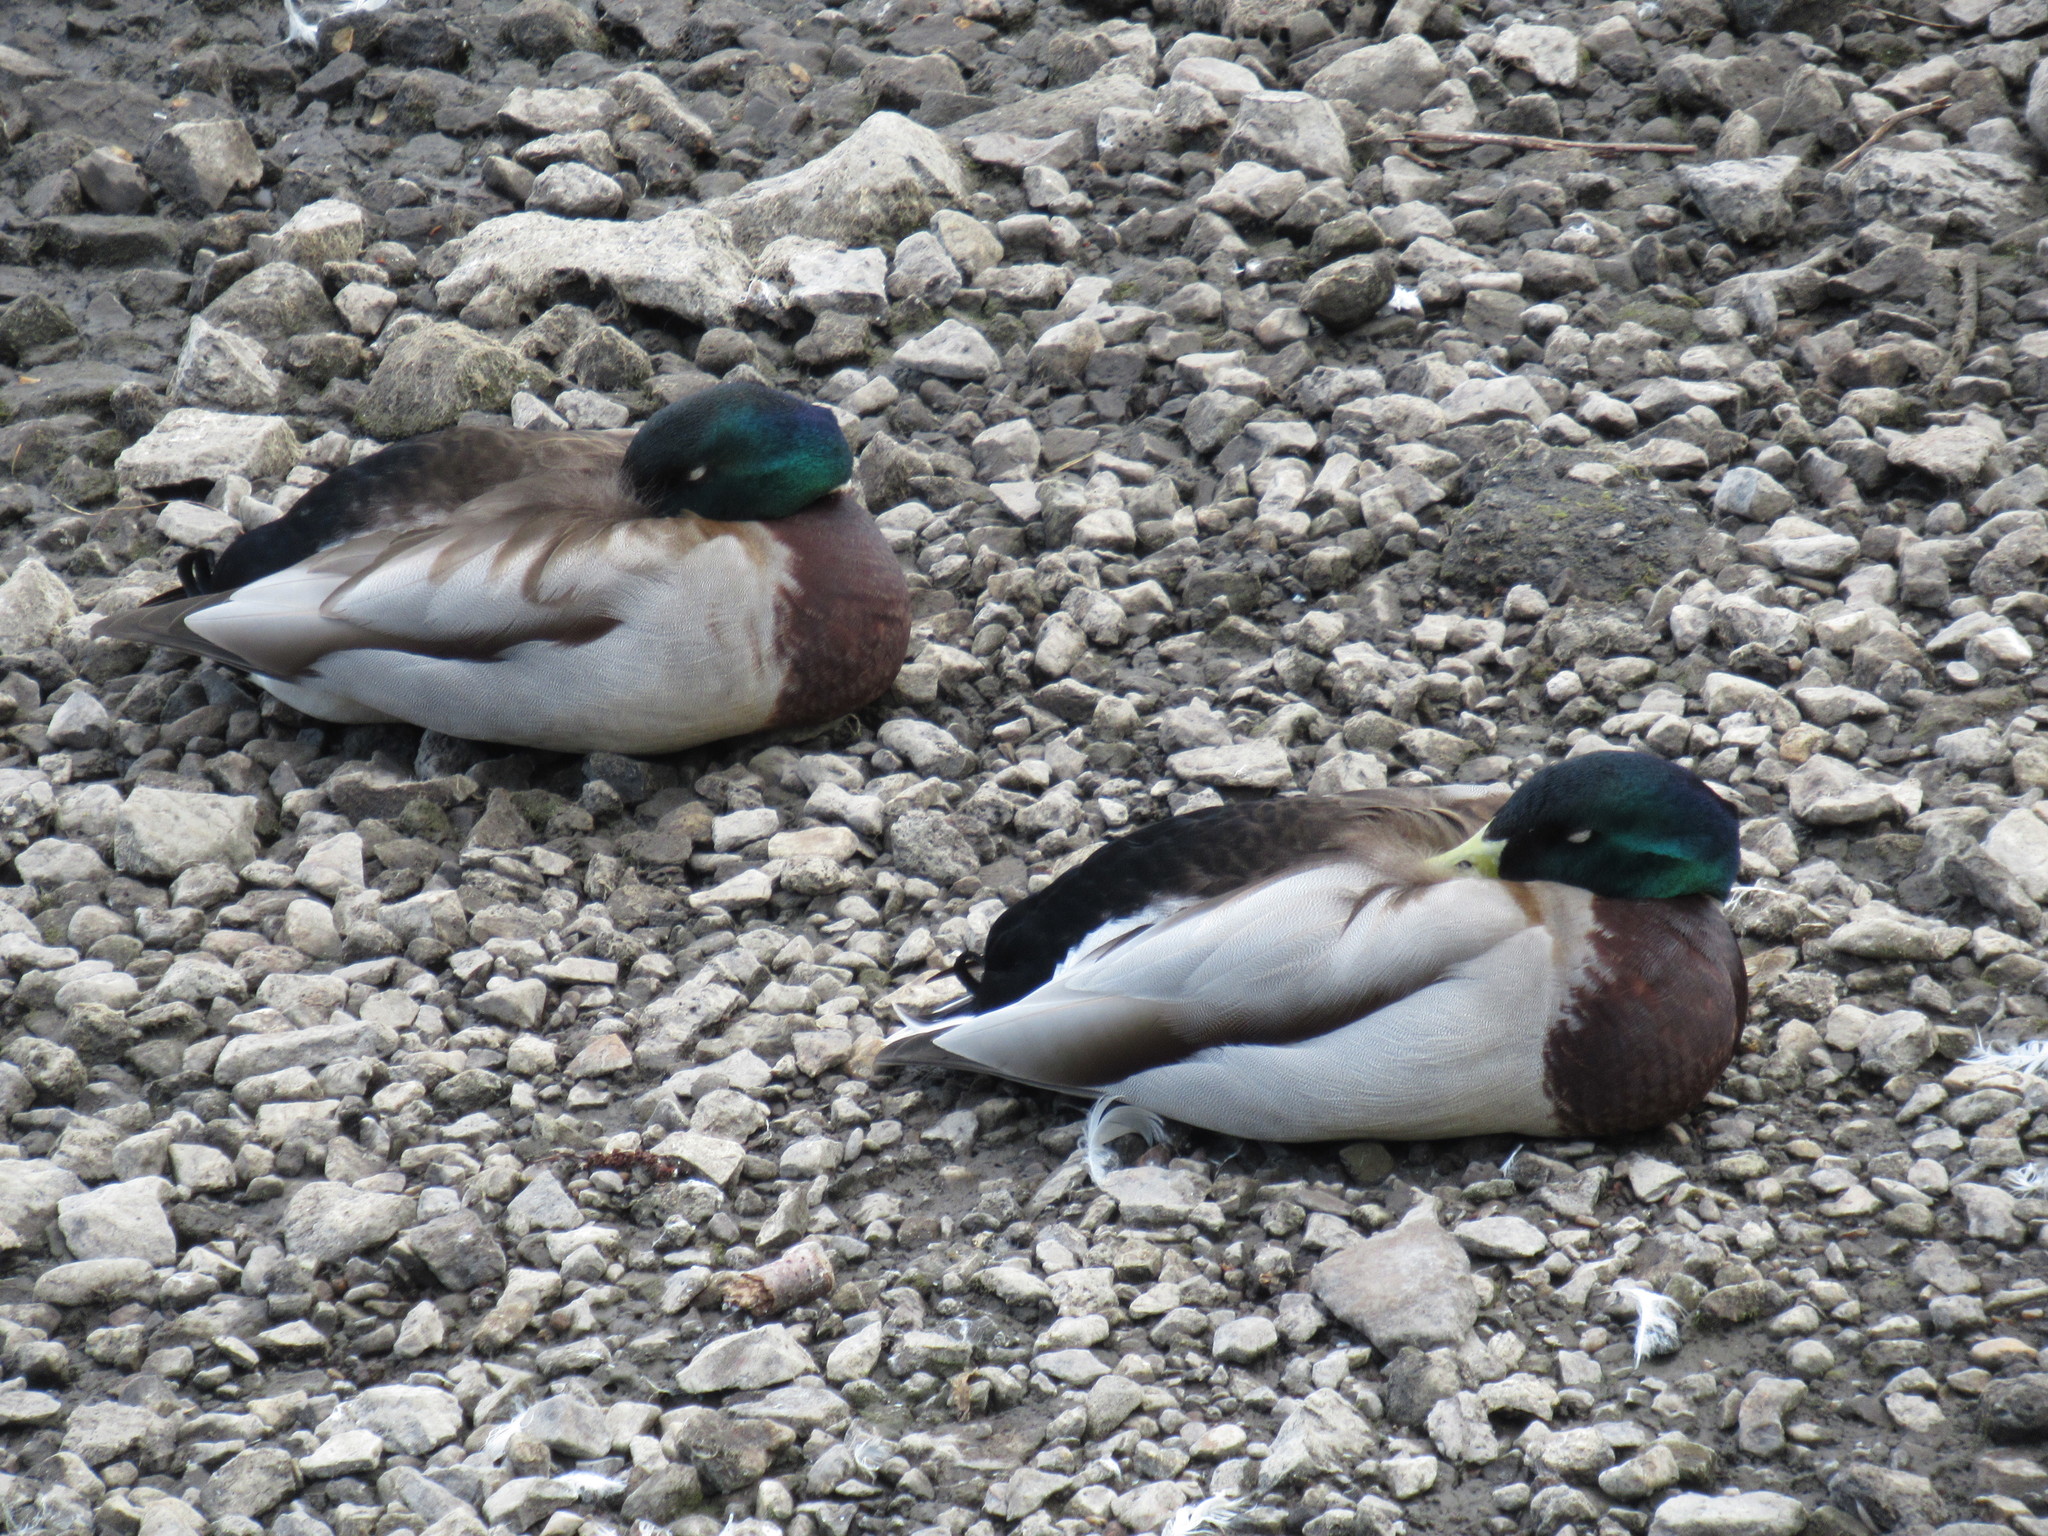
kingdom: Animalia
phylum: Chordata
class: Aves
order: Anseriformes
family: Anatidae
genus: Anas
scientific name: Anas platyrhynchos
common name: Mallard
